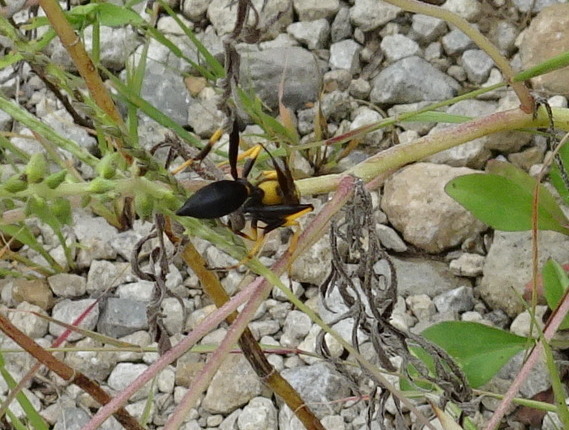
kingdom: Animalia
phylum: Arthropoda
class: Insecta
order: Hymenoptera
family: Sphecidae
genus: Sceliphron
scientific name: Sceliphron caementarium
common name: Mud dauber
